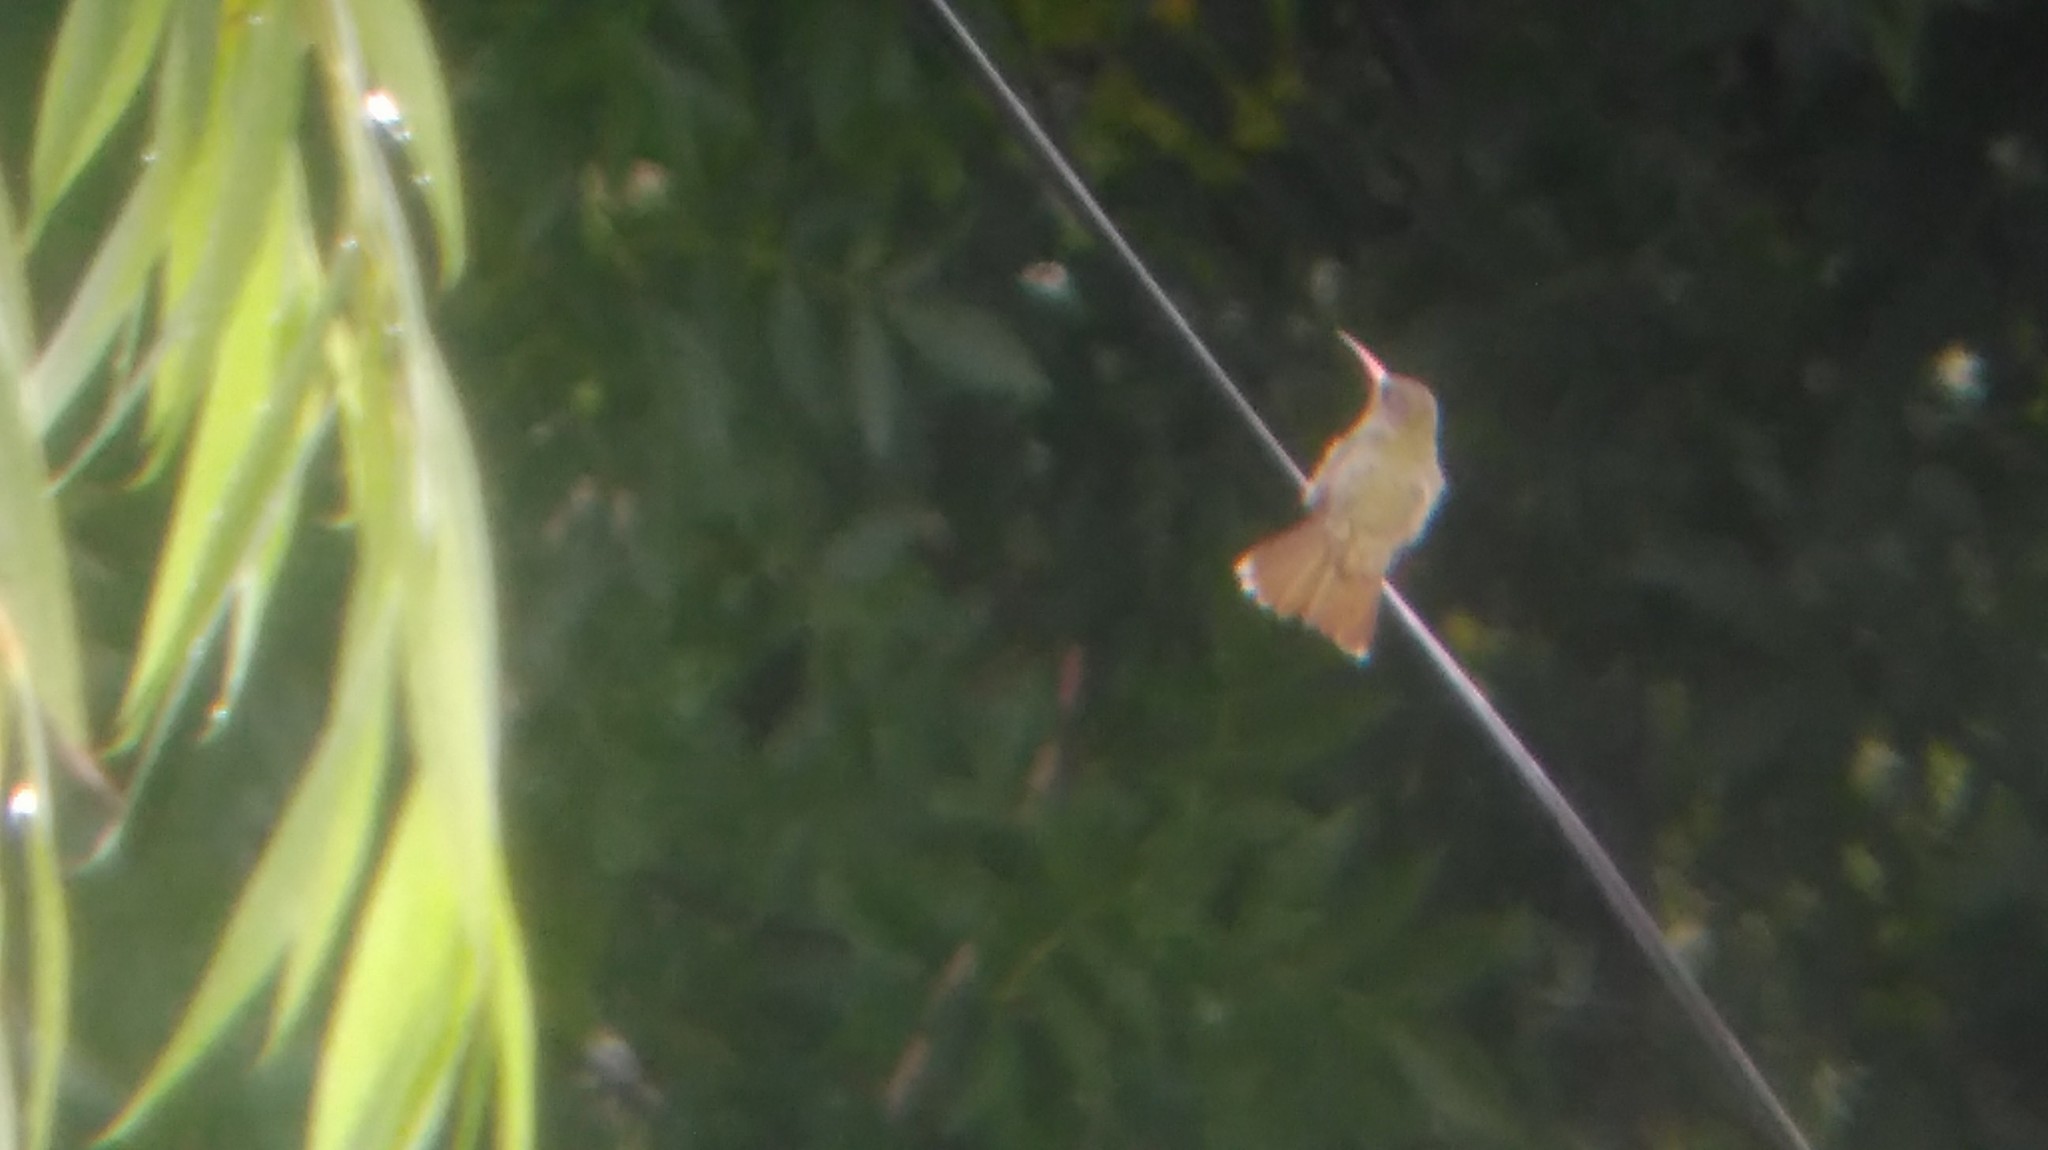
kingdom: Animalia
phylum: Chordata
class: Aves
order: Apodiformes
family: Trochilidae
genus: Hylocharis
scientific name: Hylocharis chrysura
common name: Gilded sapphire
